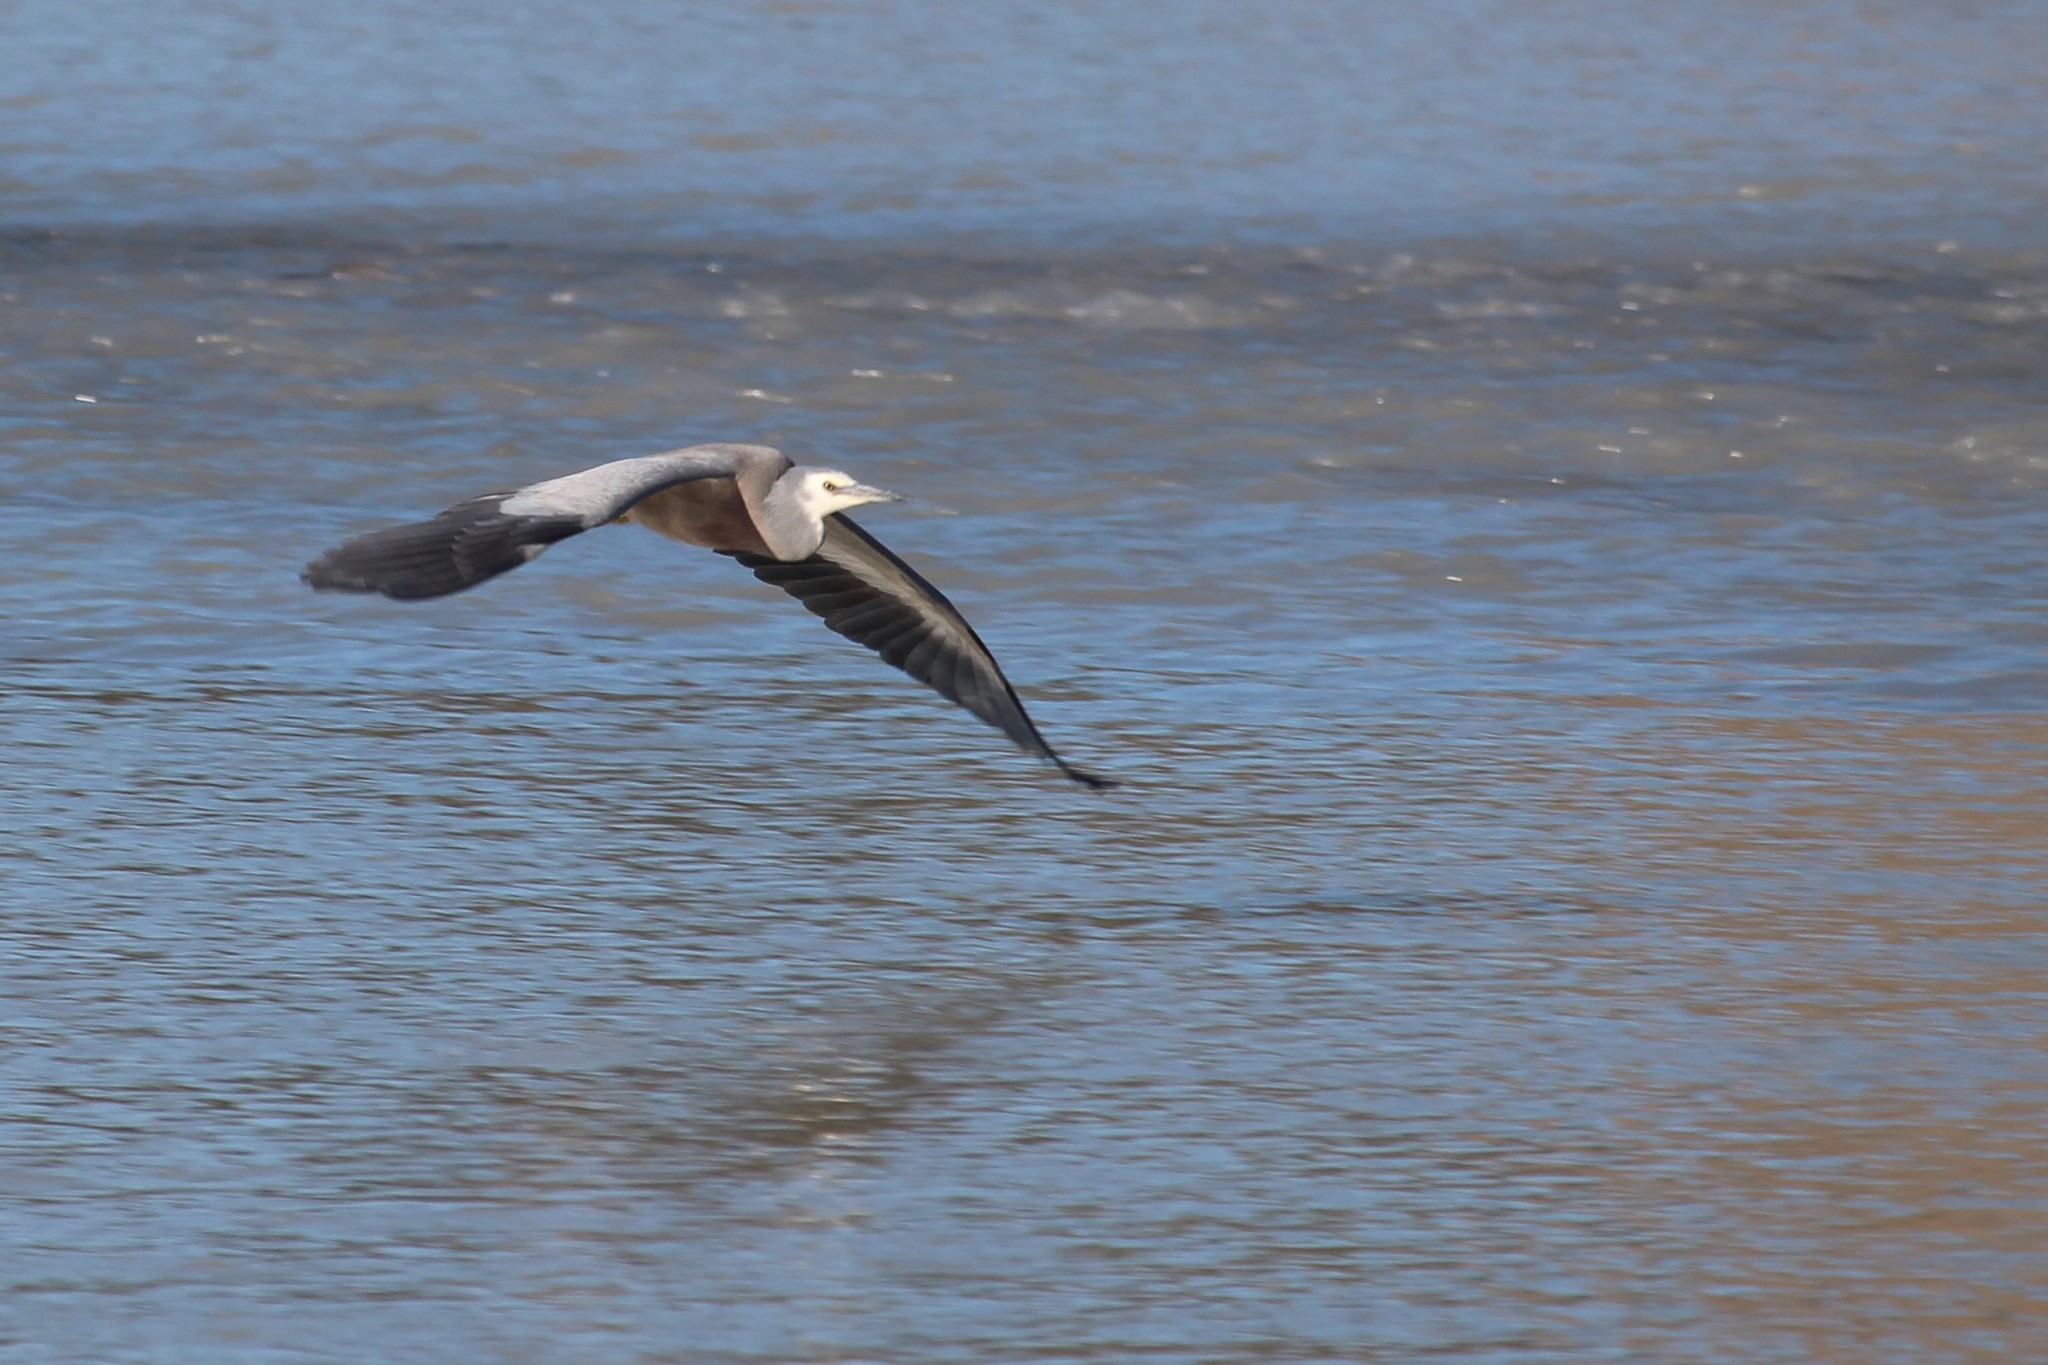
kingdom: Animalia
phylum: Chordata
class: Aves
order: Pelecaniformes
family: Ardeidae
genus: Egretta
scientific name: Egretta novaehollandiae
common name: White-faced heron
